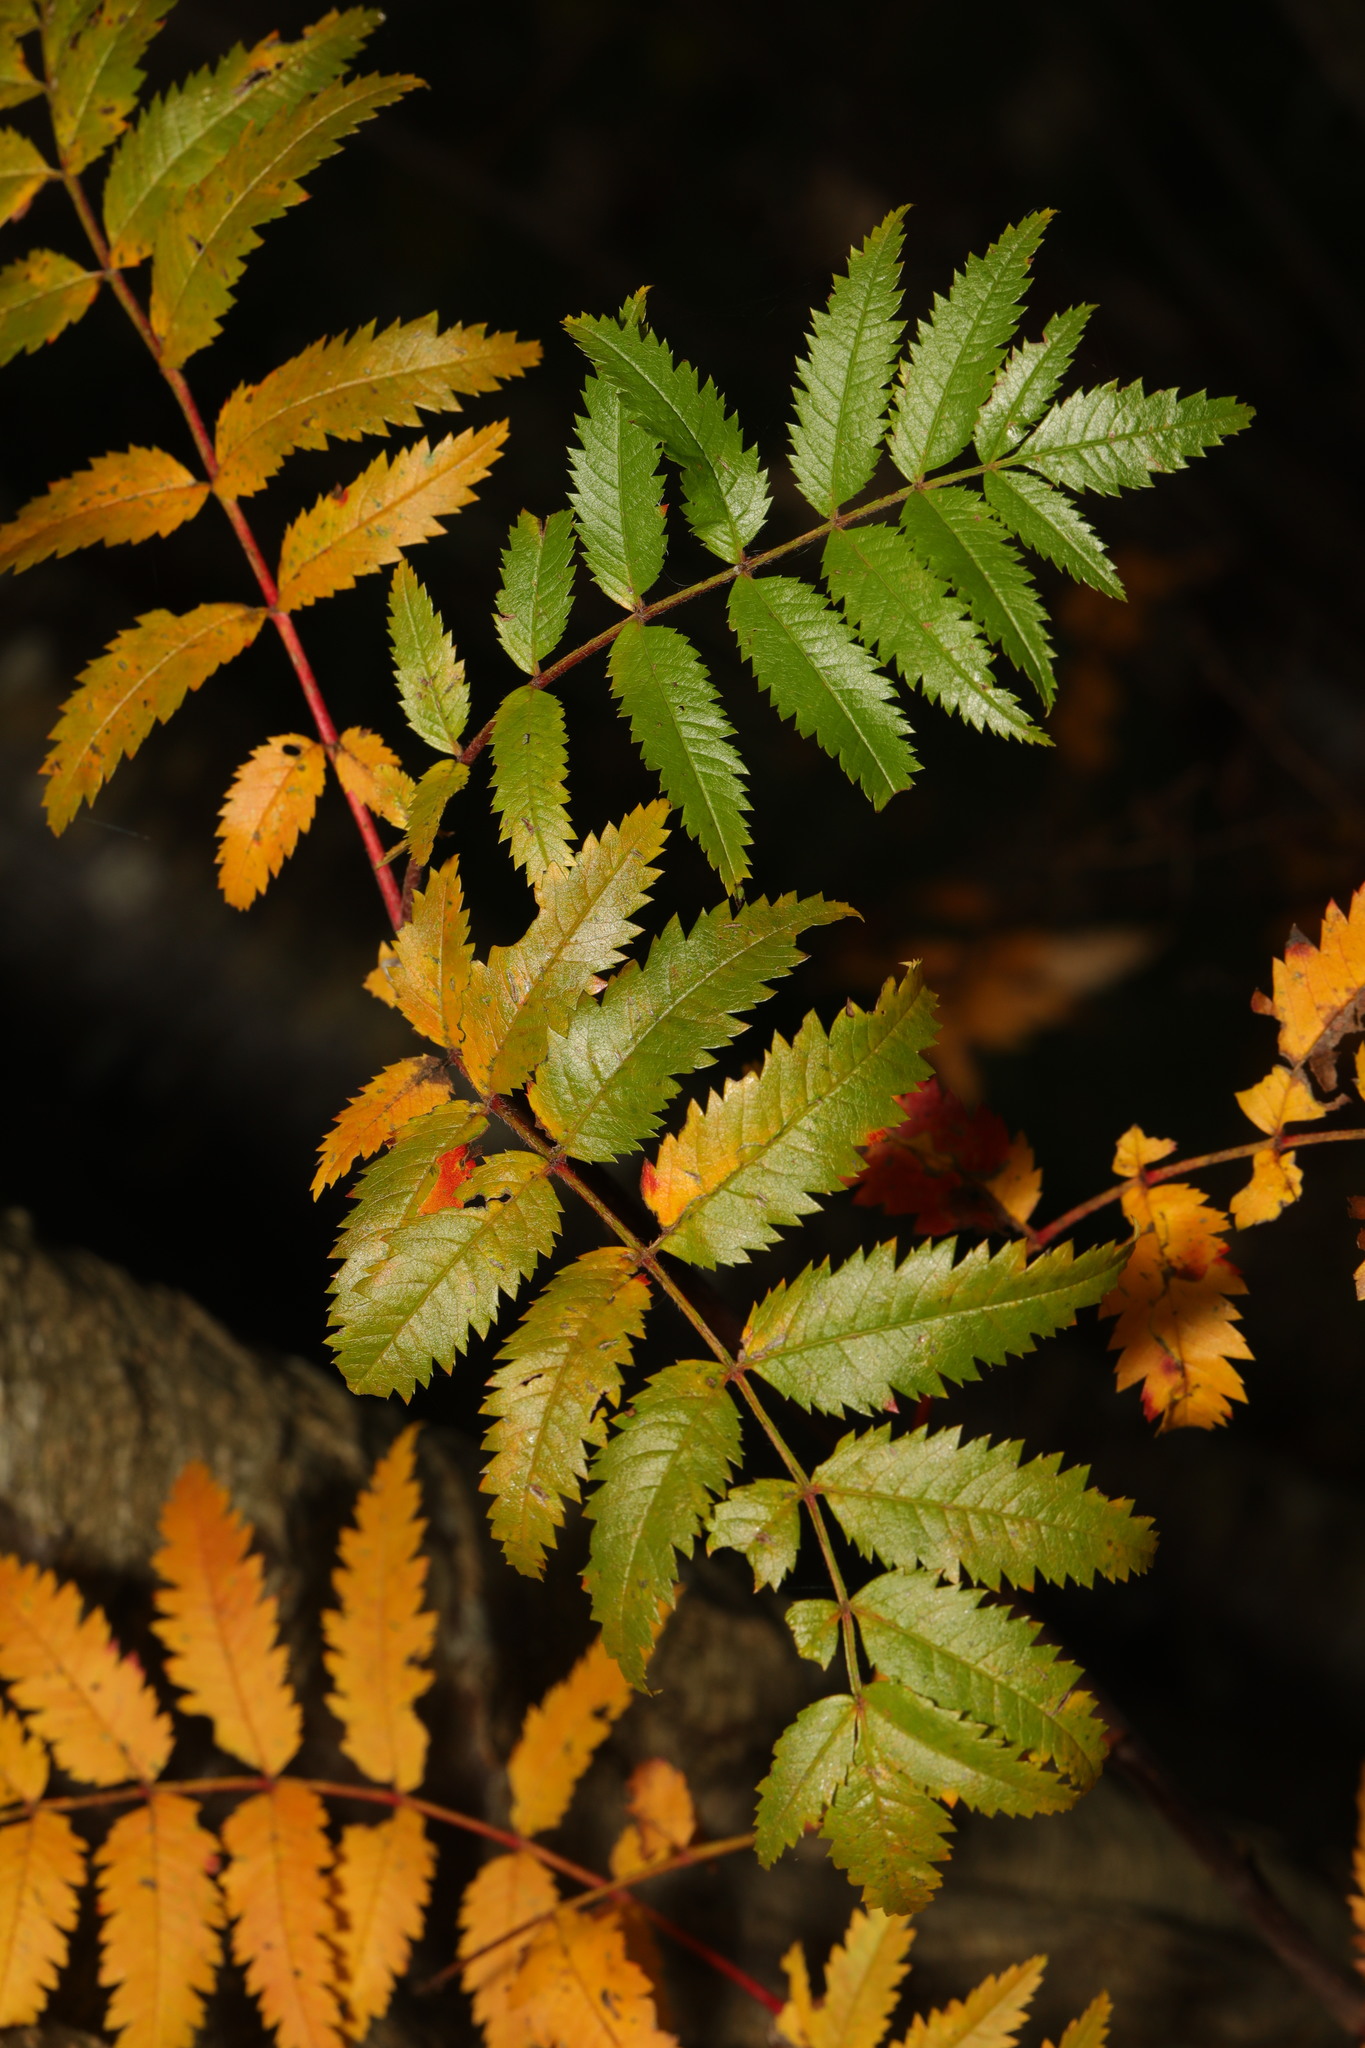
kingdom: Plantae
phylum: Tracheophyta
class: Magnoliopsida
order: Rosales
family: Rosaceae
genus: Sorbus
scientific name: Sorbus aucuparia
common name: Rowan
